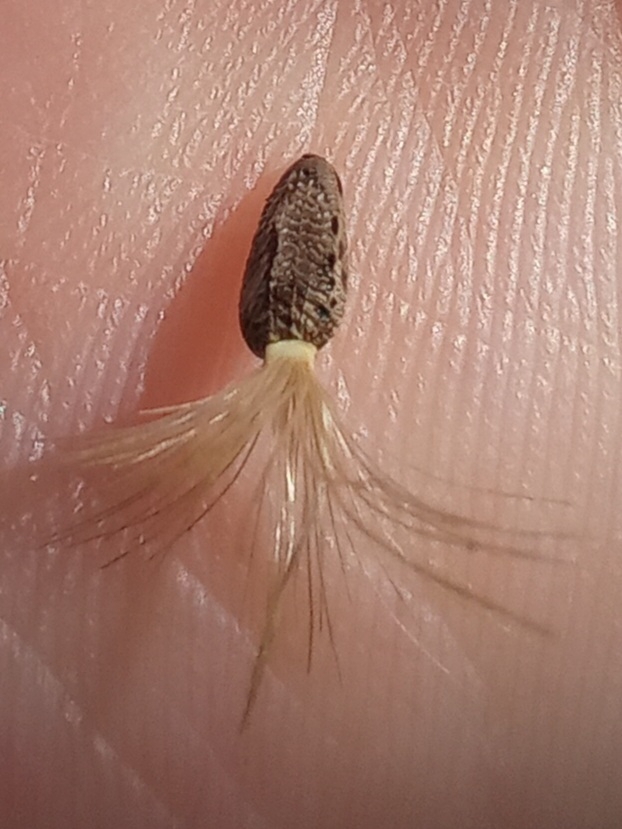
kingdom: Plantae
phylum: Tracheophyta
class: Magnoliopsida
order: Asterales
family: Asteraceae
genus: Onopordum
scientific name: Onopordum acanthium
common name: Scotch thistle
